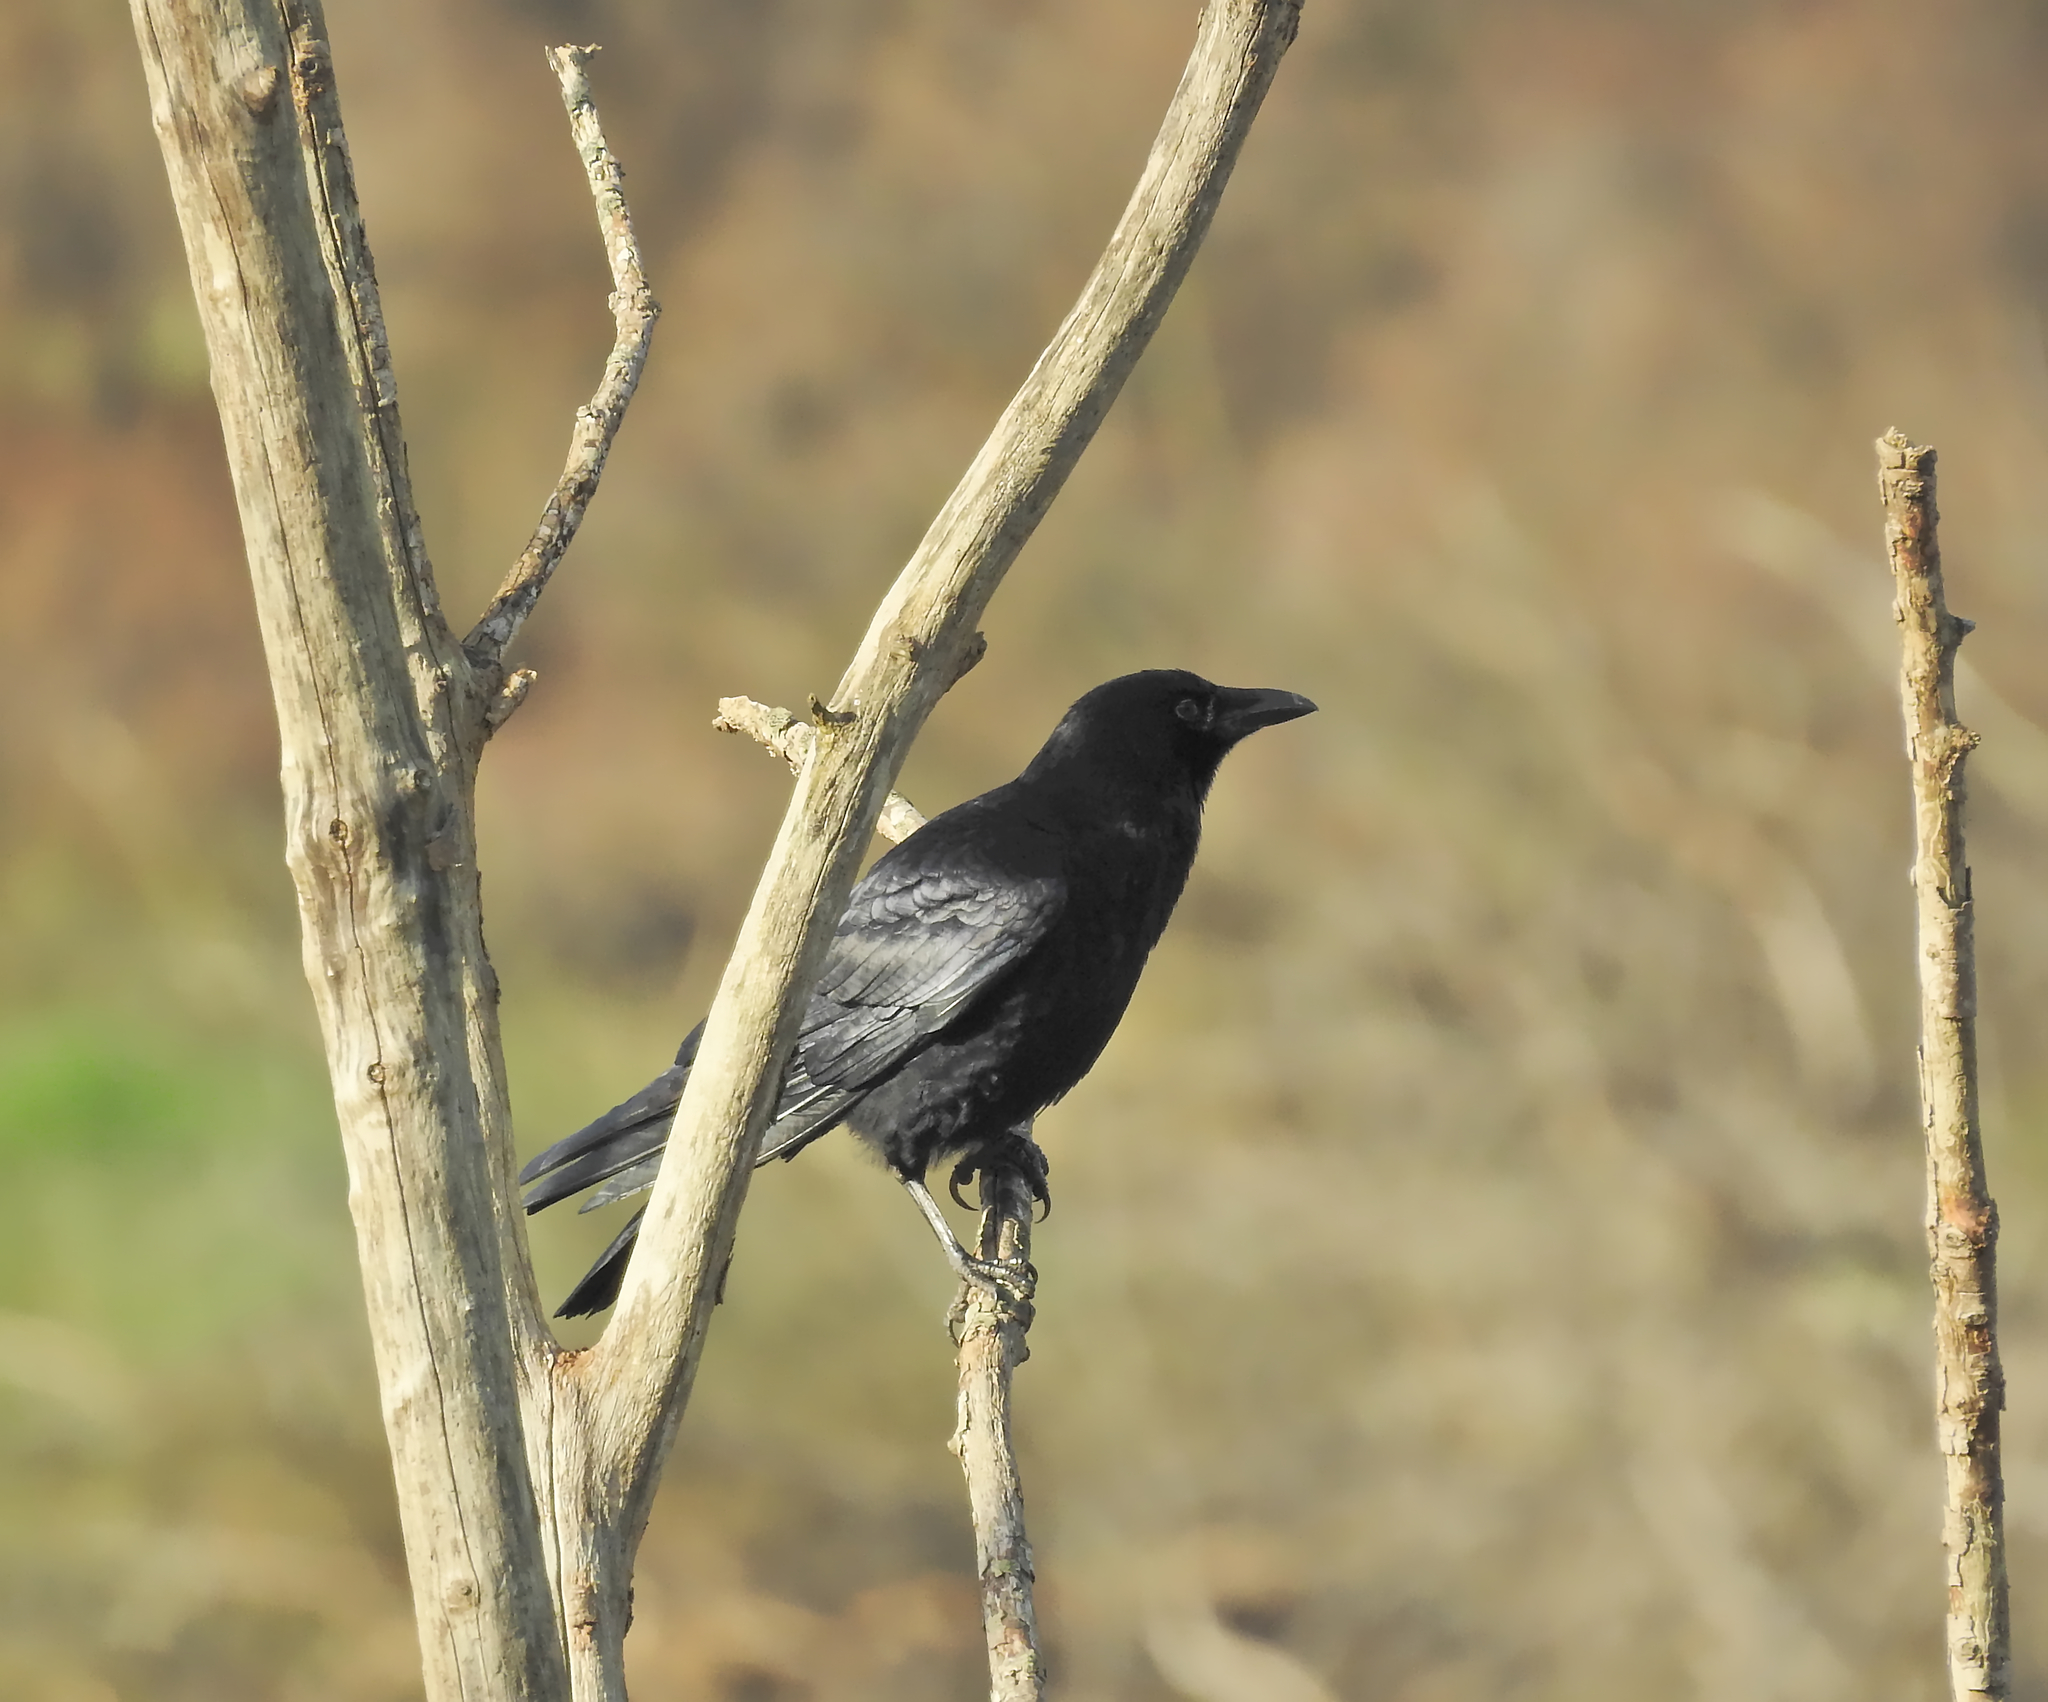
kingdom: Animalia
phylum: Chordata
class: Aves
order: Passeriformes
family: Corvidae
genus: Corvus
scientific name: Corvus corone
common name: Carrion crow
